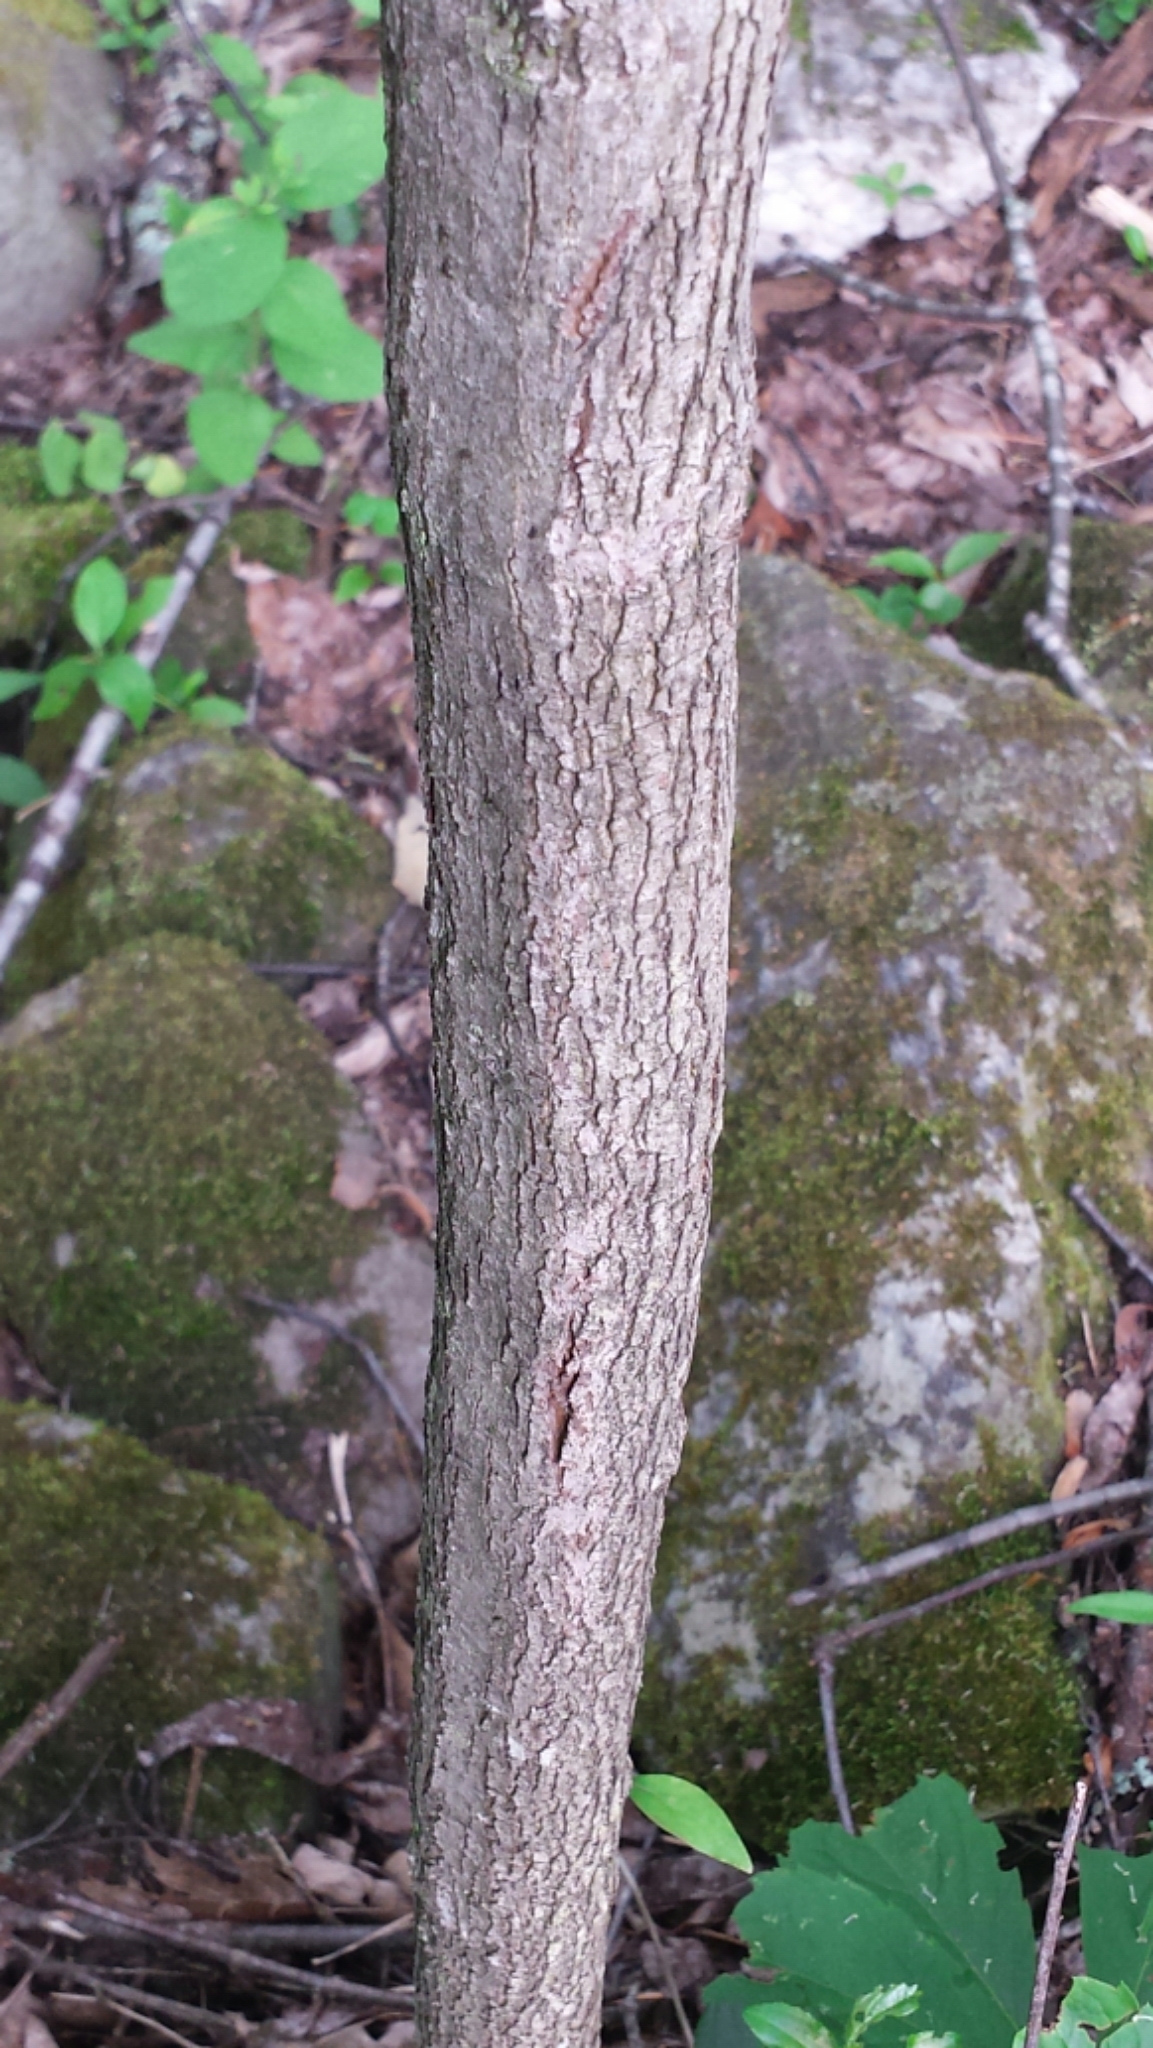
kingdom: Plantae
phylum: Tracheophyta
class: Magnoliopsida
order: Cornales
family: Cornaceae
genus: Cornus
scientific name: Cornus racemosa
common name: Panicled dogwood
